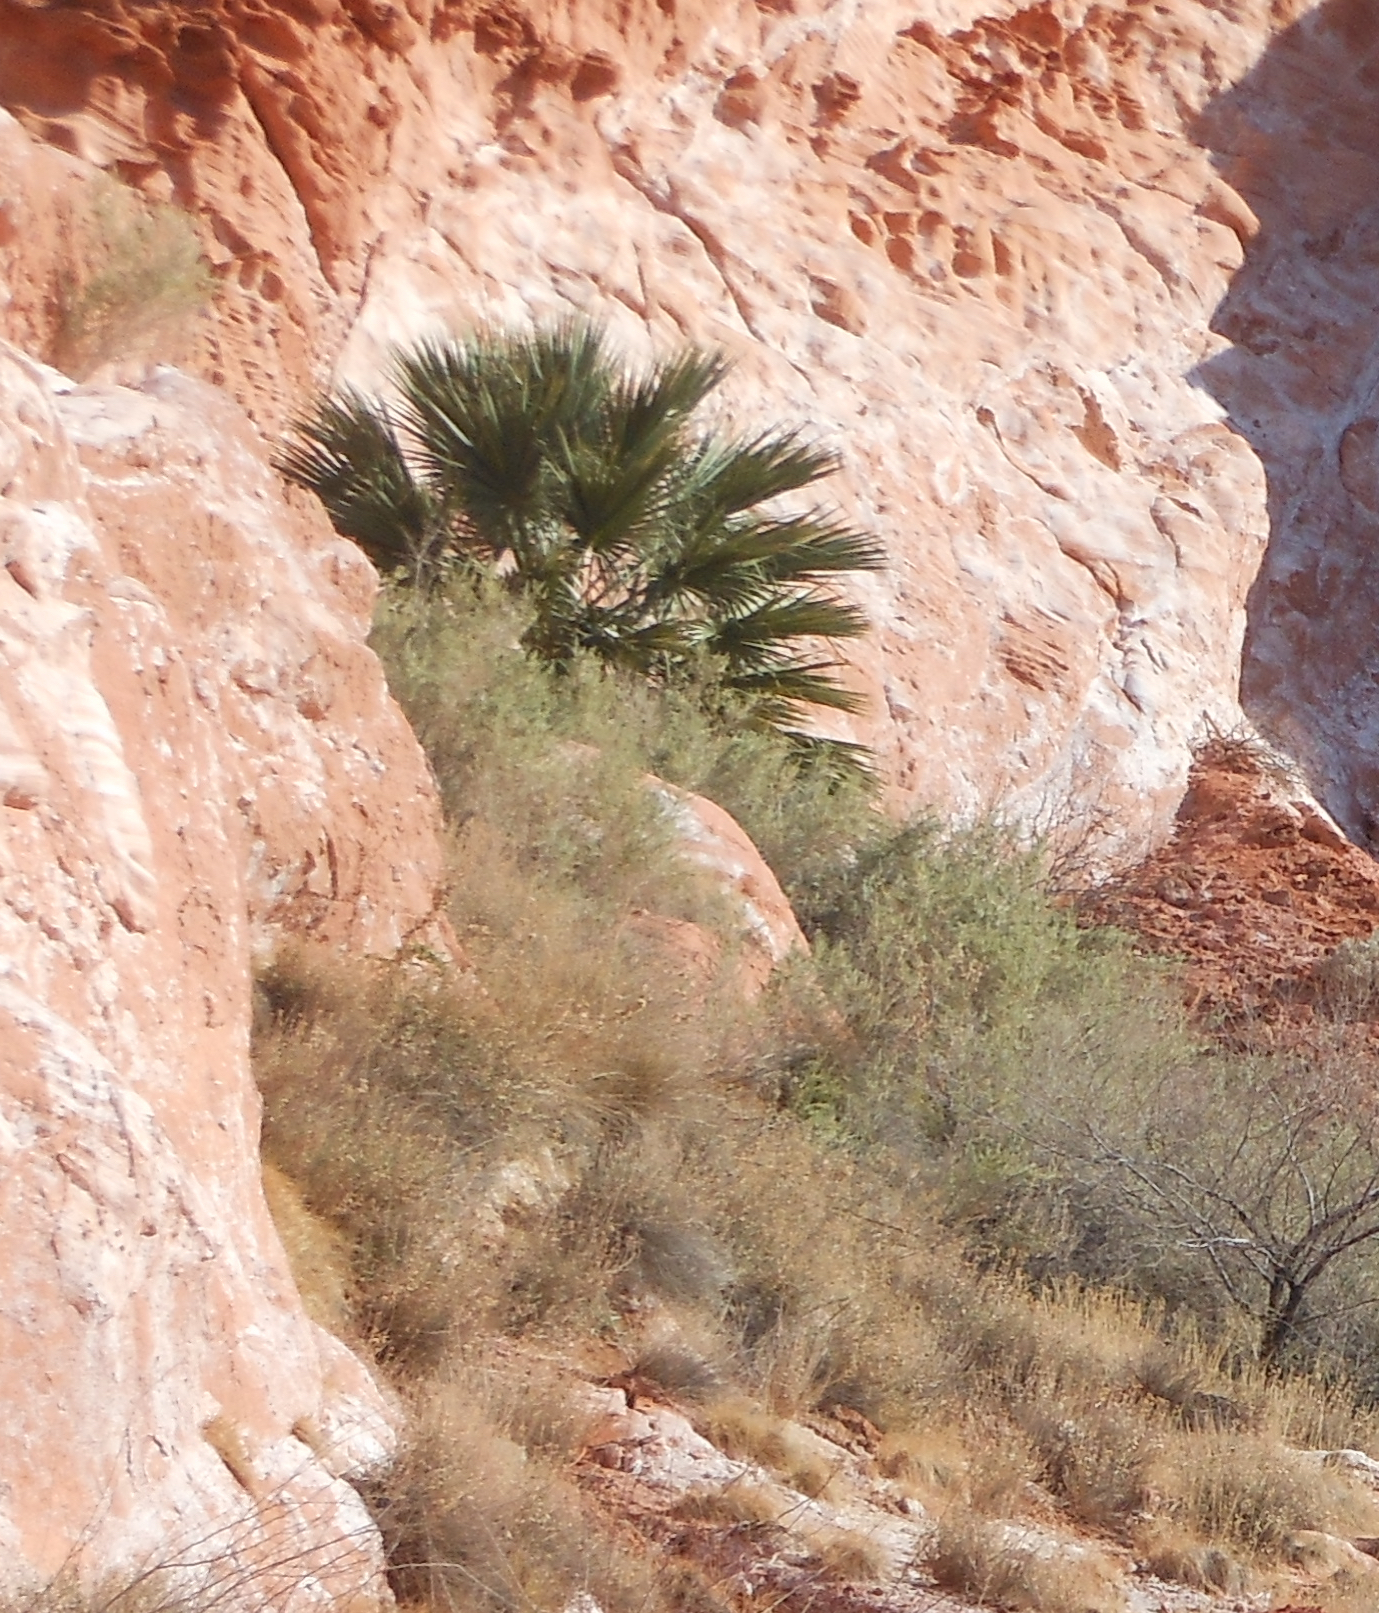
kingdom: Plantae
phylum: Tracheophyta
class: Liliopsida
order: Arecales
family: Arecaceae
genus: Washingtonia
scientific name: Washingtonia filifera
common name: California fan palm
